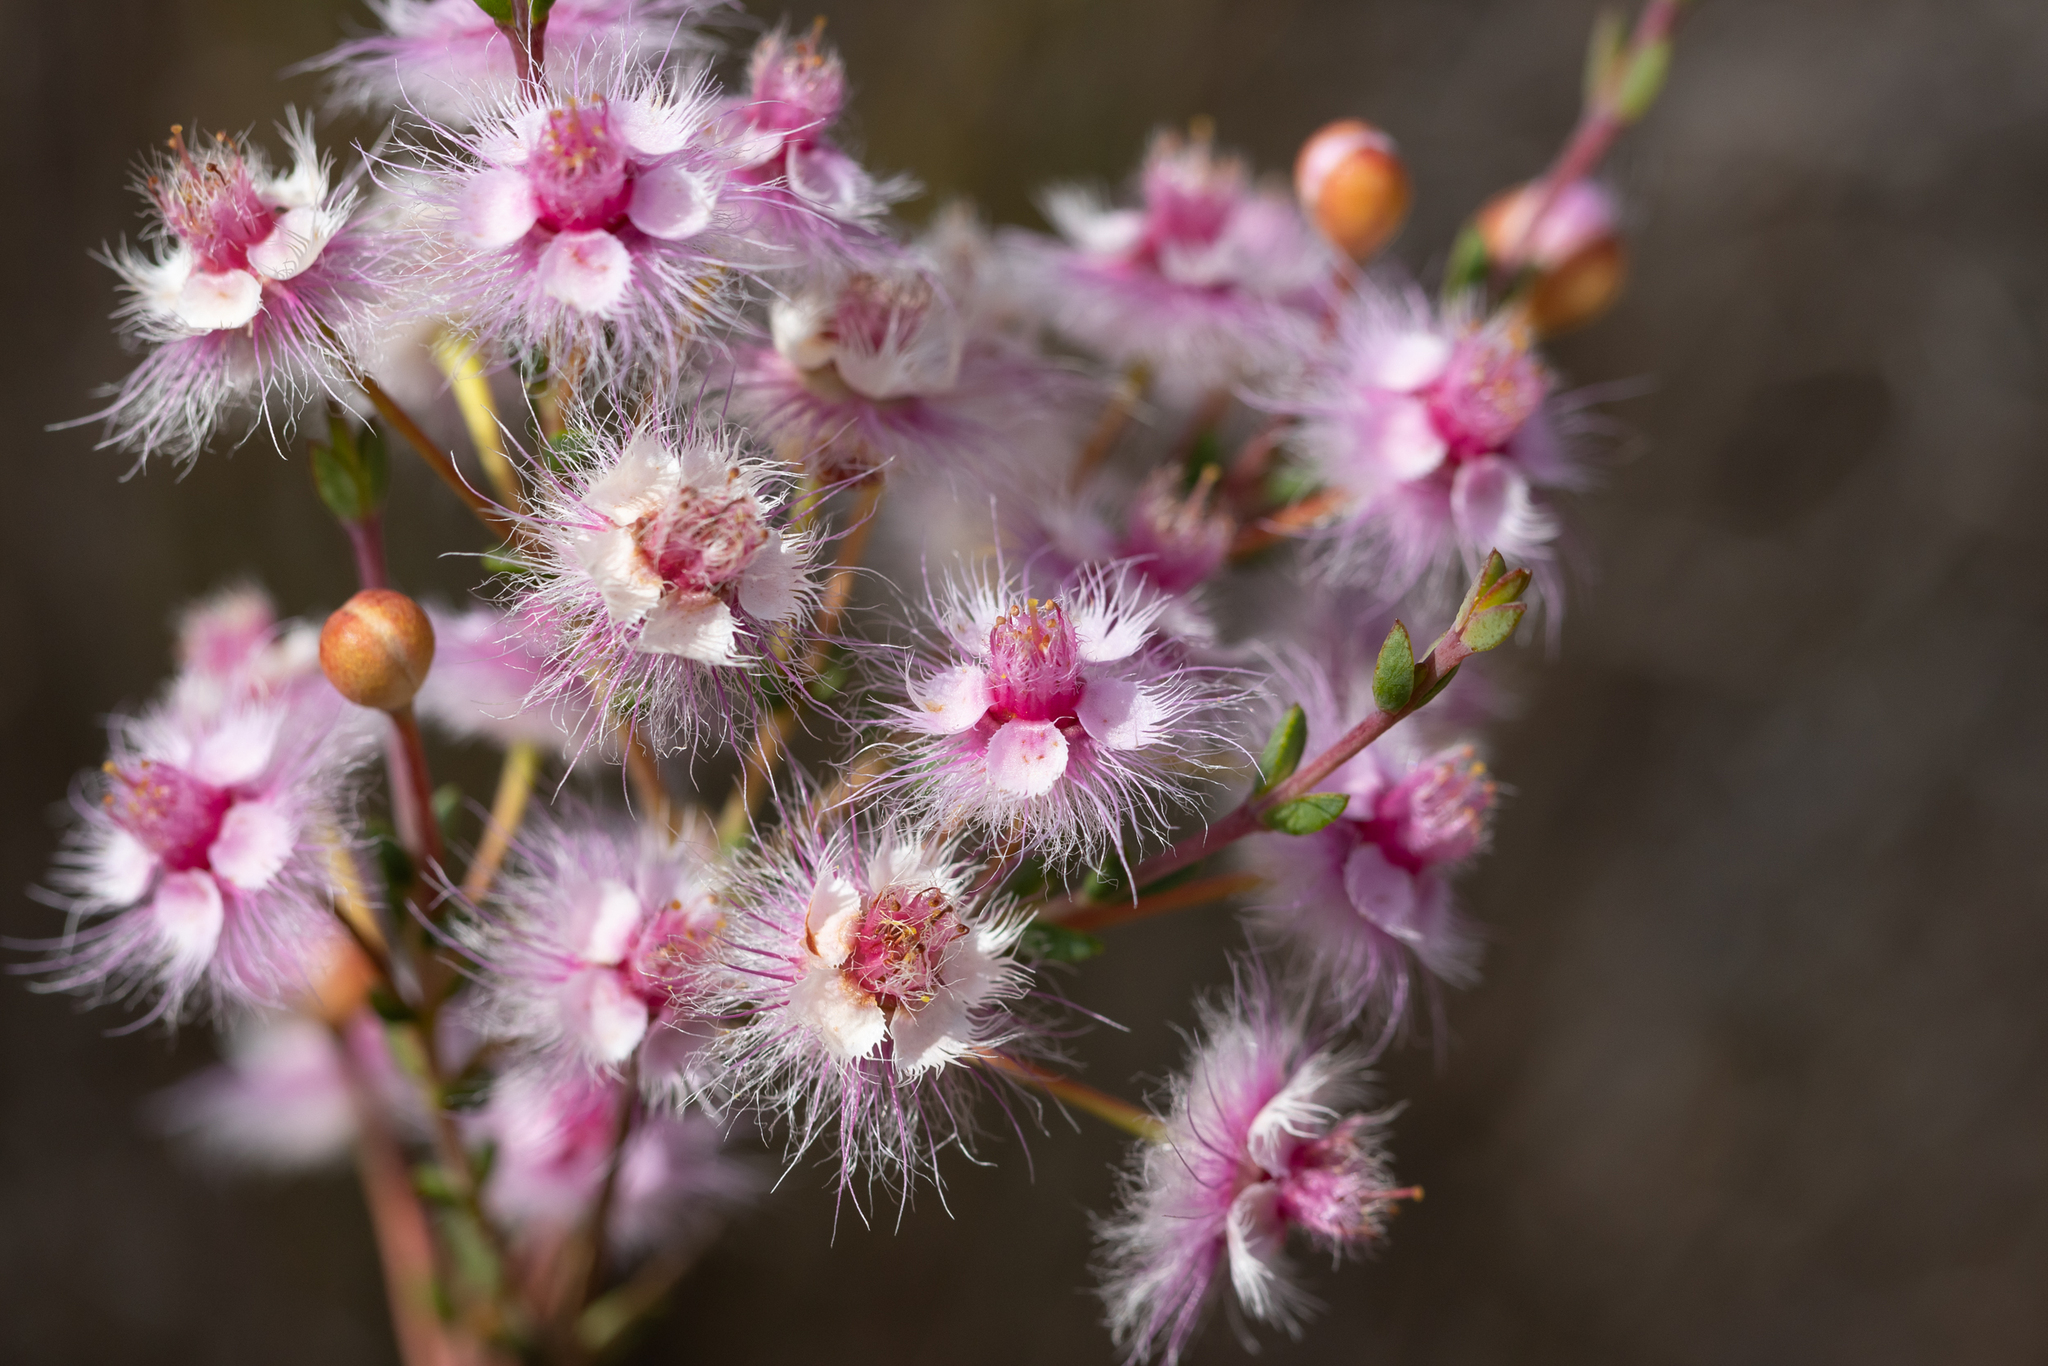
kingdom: Plantae
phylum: Tracheophyta
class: Magnoliopsida
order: Myrtales
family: Myrtaceae
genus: Verticordia
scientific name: Verticordia insignis
